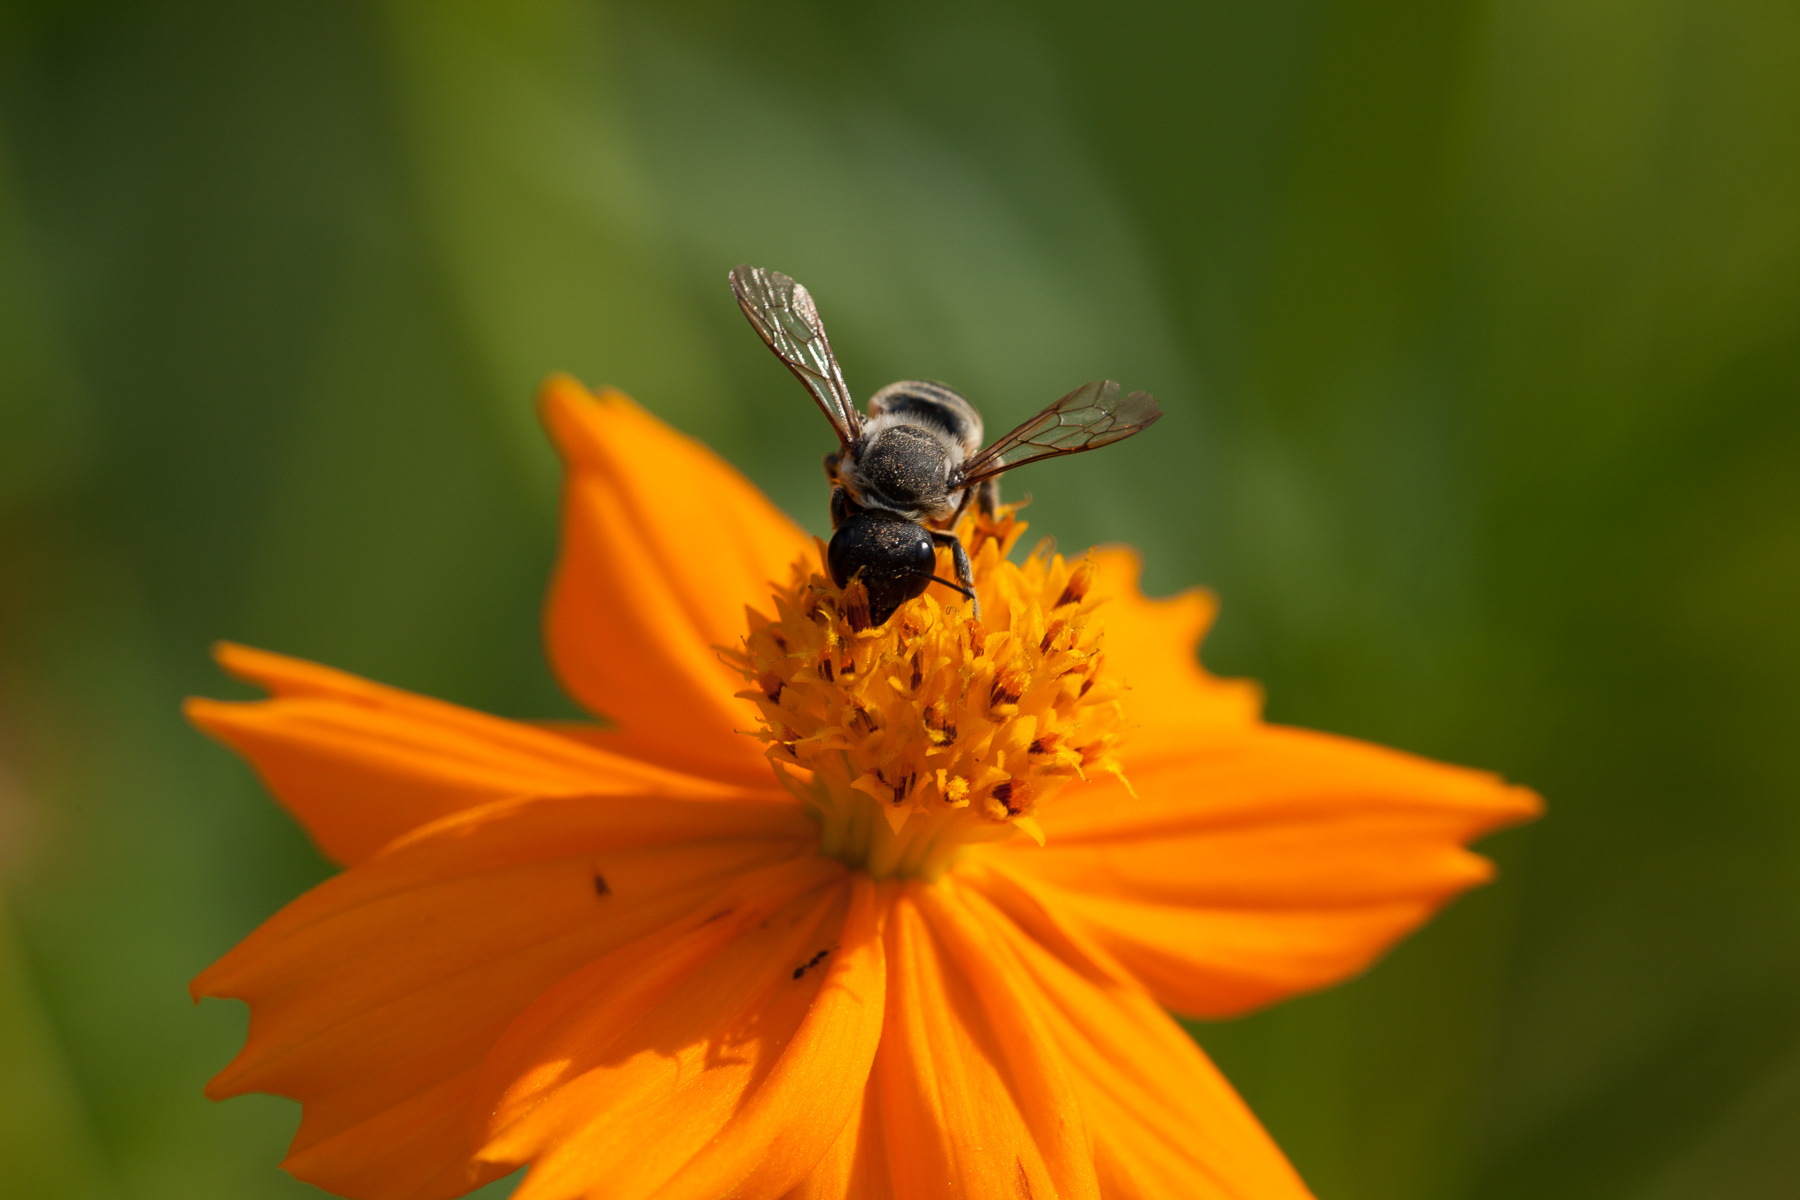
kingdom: Animalia
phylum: Arthropoda
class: Insecta
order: Hymenoptera
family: Megachilidae
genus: Megachile
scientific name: Megachile policaris
